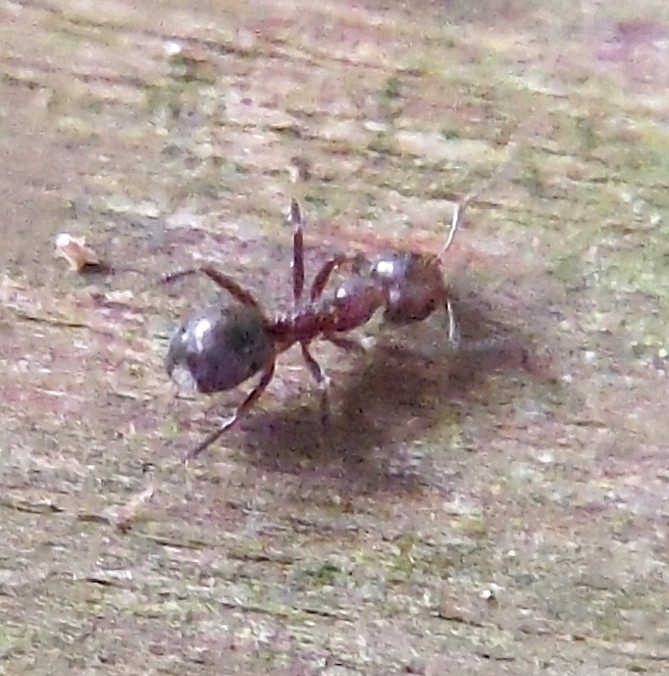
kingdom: Animalia
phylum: Arthropoda
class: Insecta
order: Hymenoptera
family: Formicidae
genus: Dolichoderus
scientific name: Dolichoderus thoracicus
